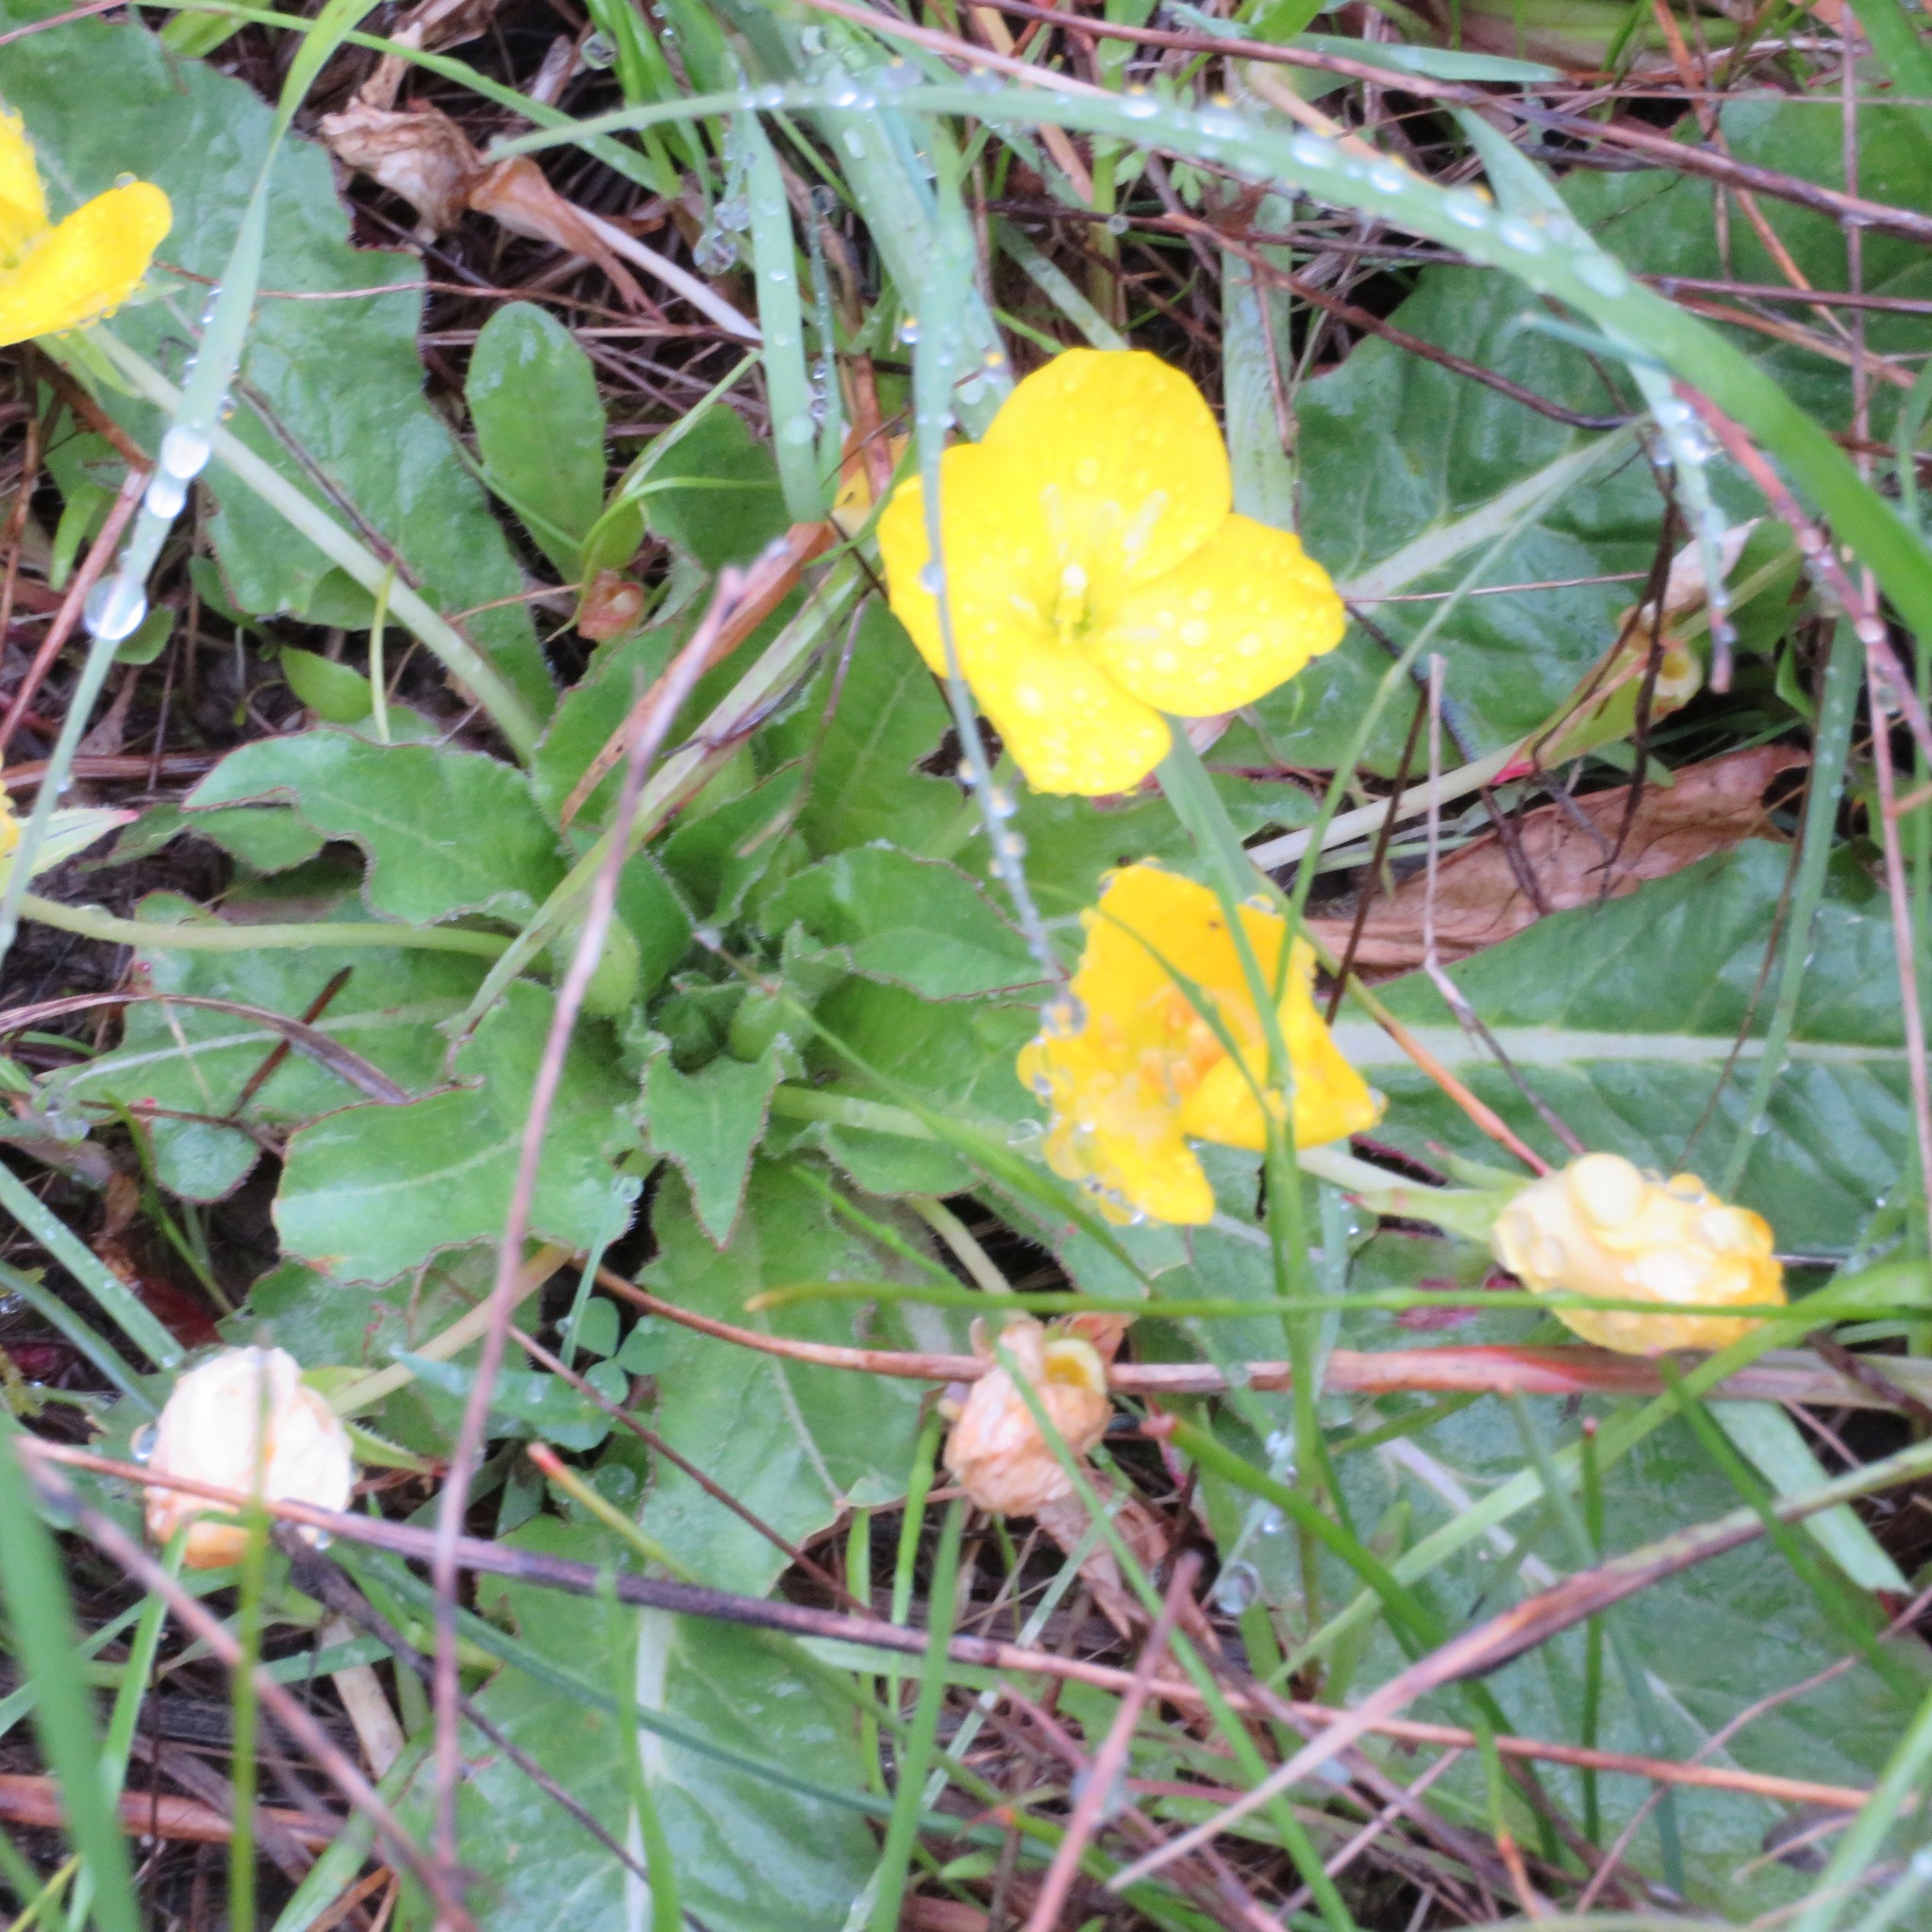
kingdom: Plantae
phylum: Tracheophyta
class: Magnoliopsida
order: Myrtales
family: Onagraceae
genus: Taraxia
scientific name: Taraxia ovata
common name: Goldeneggs
